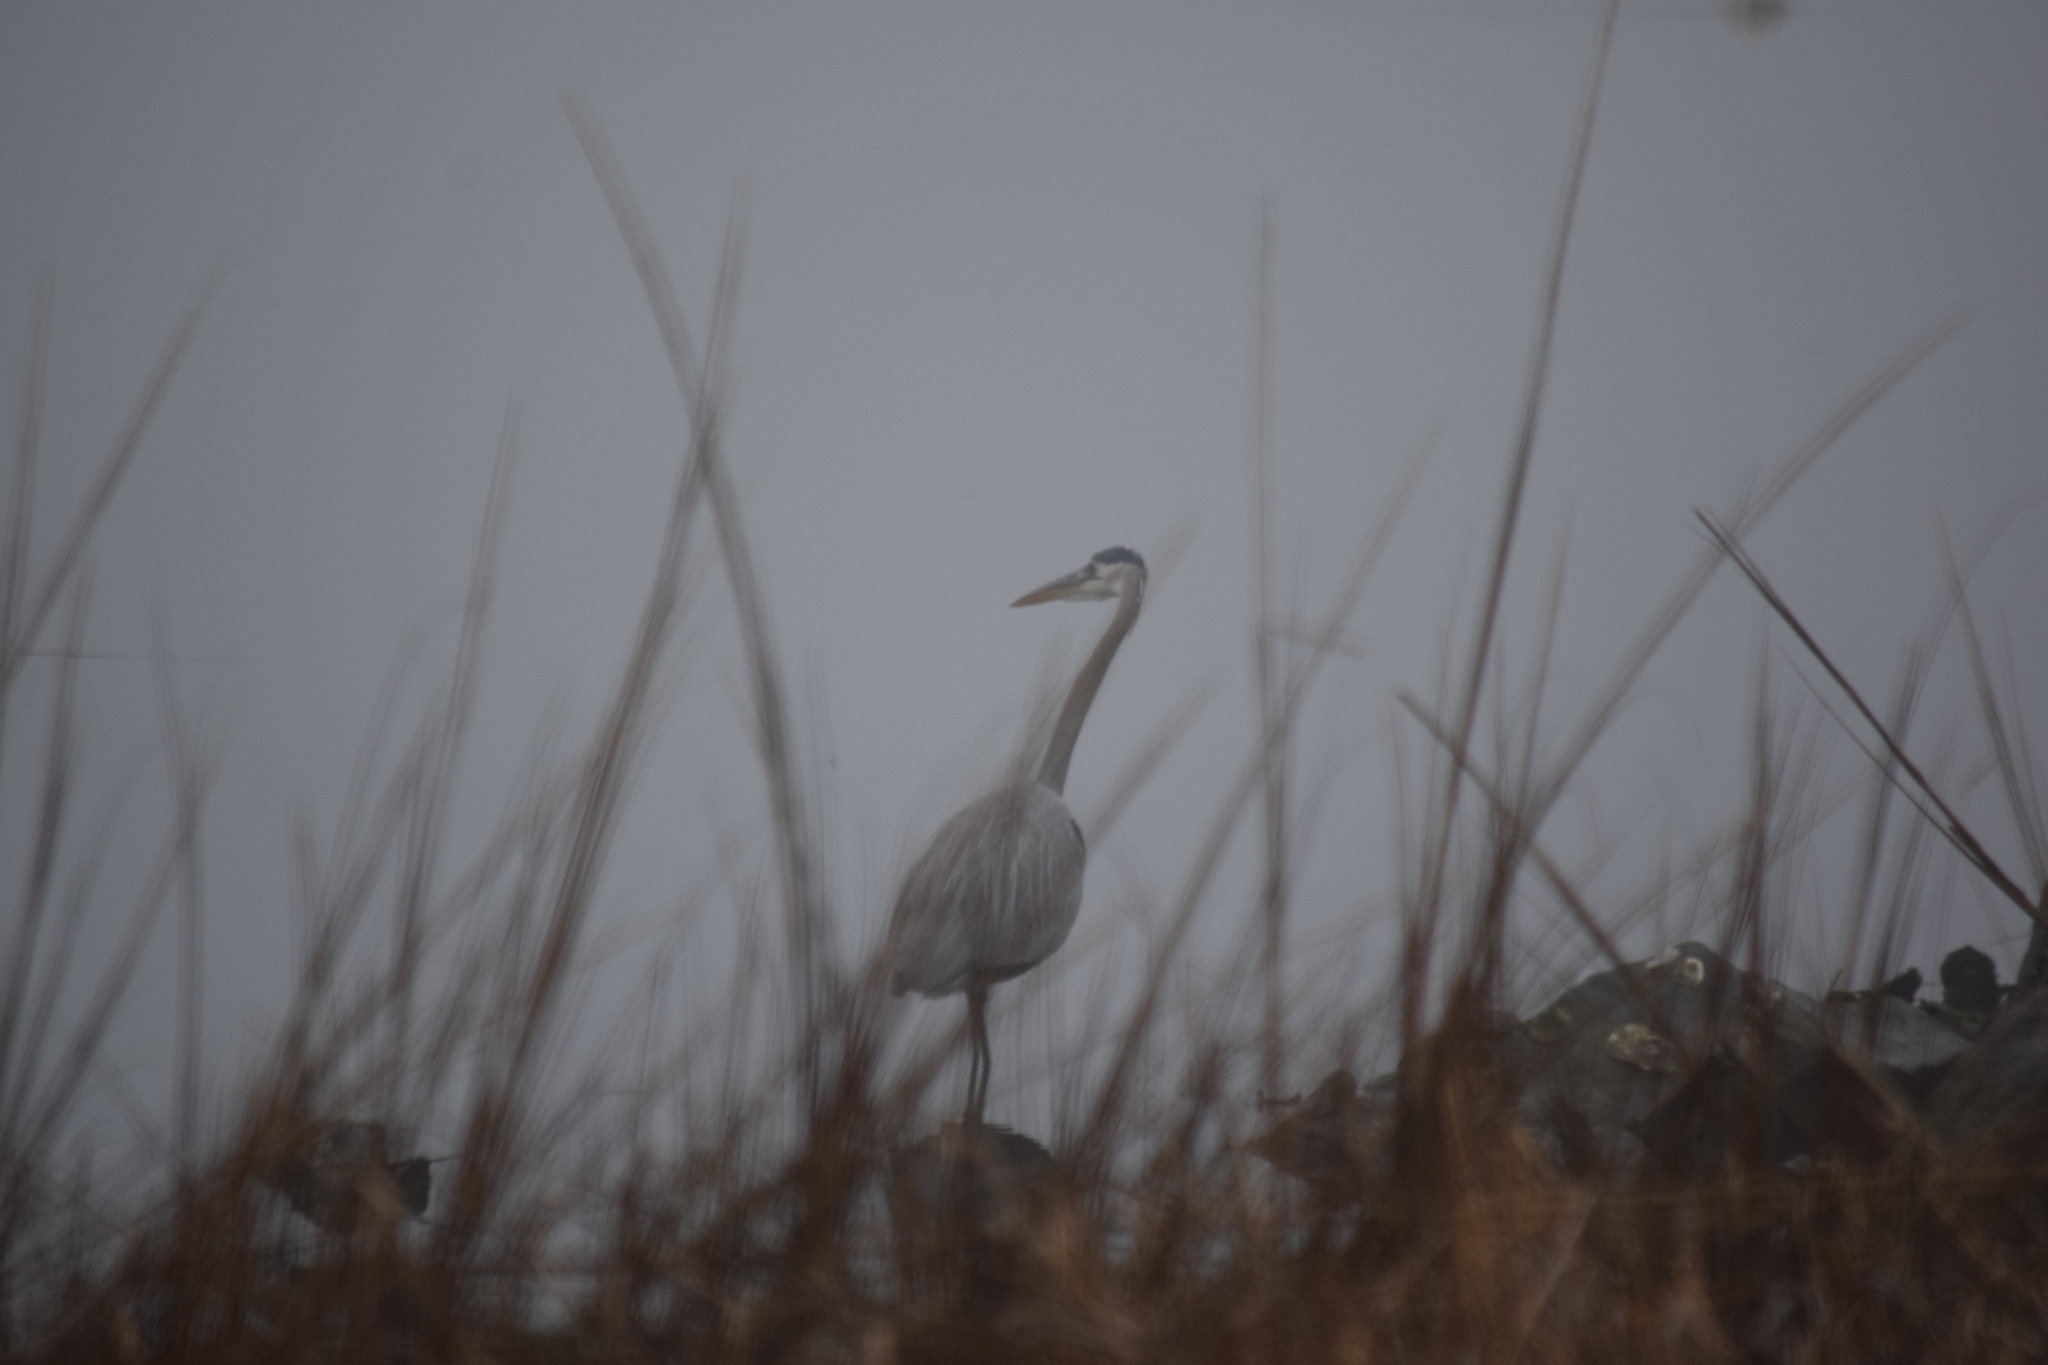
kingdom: Animalia
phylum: Chordata
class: Aves
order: Pelecaniformes
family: Ardeidae
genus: Ardea
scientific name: Ardea herodias
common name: Great blue heron
